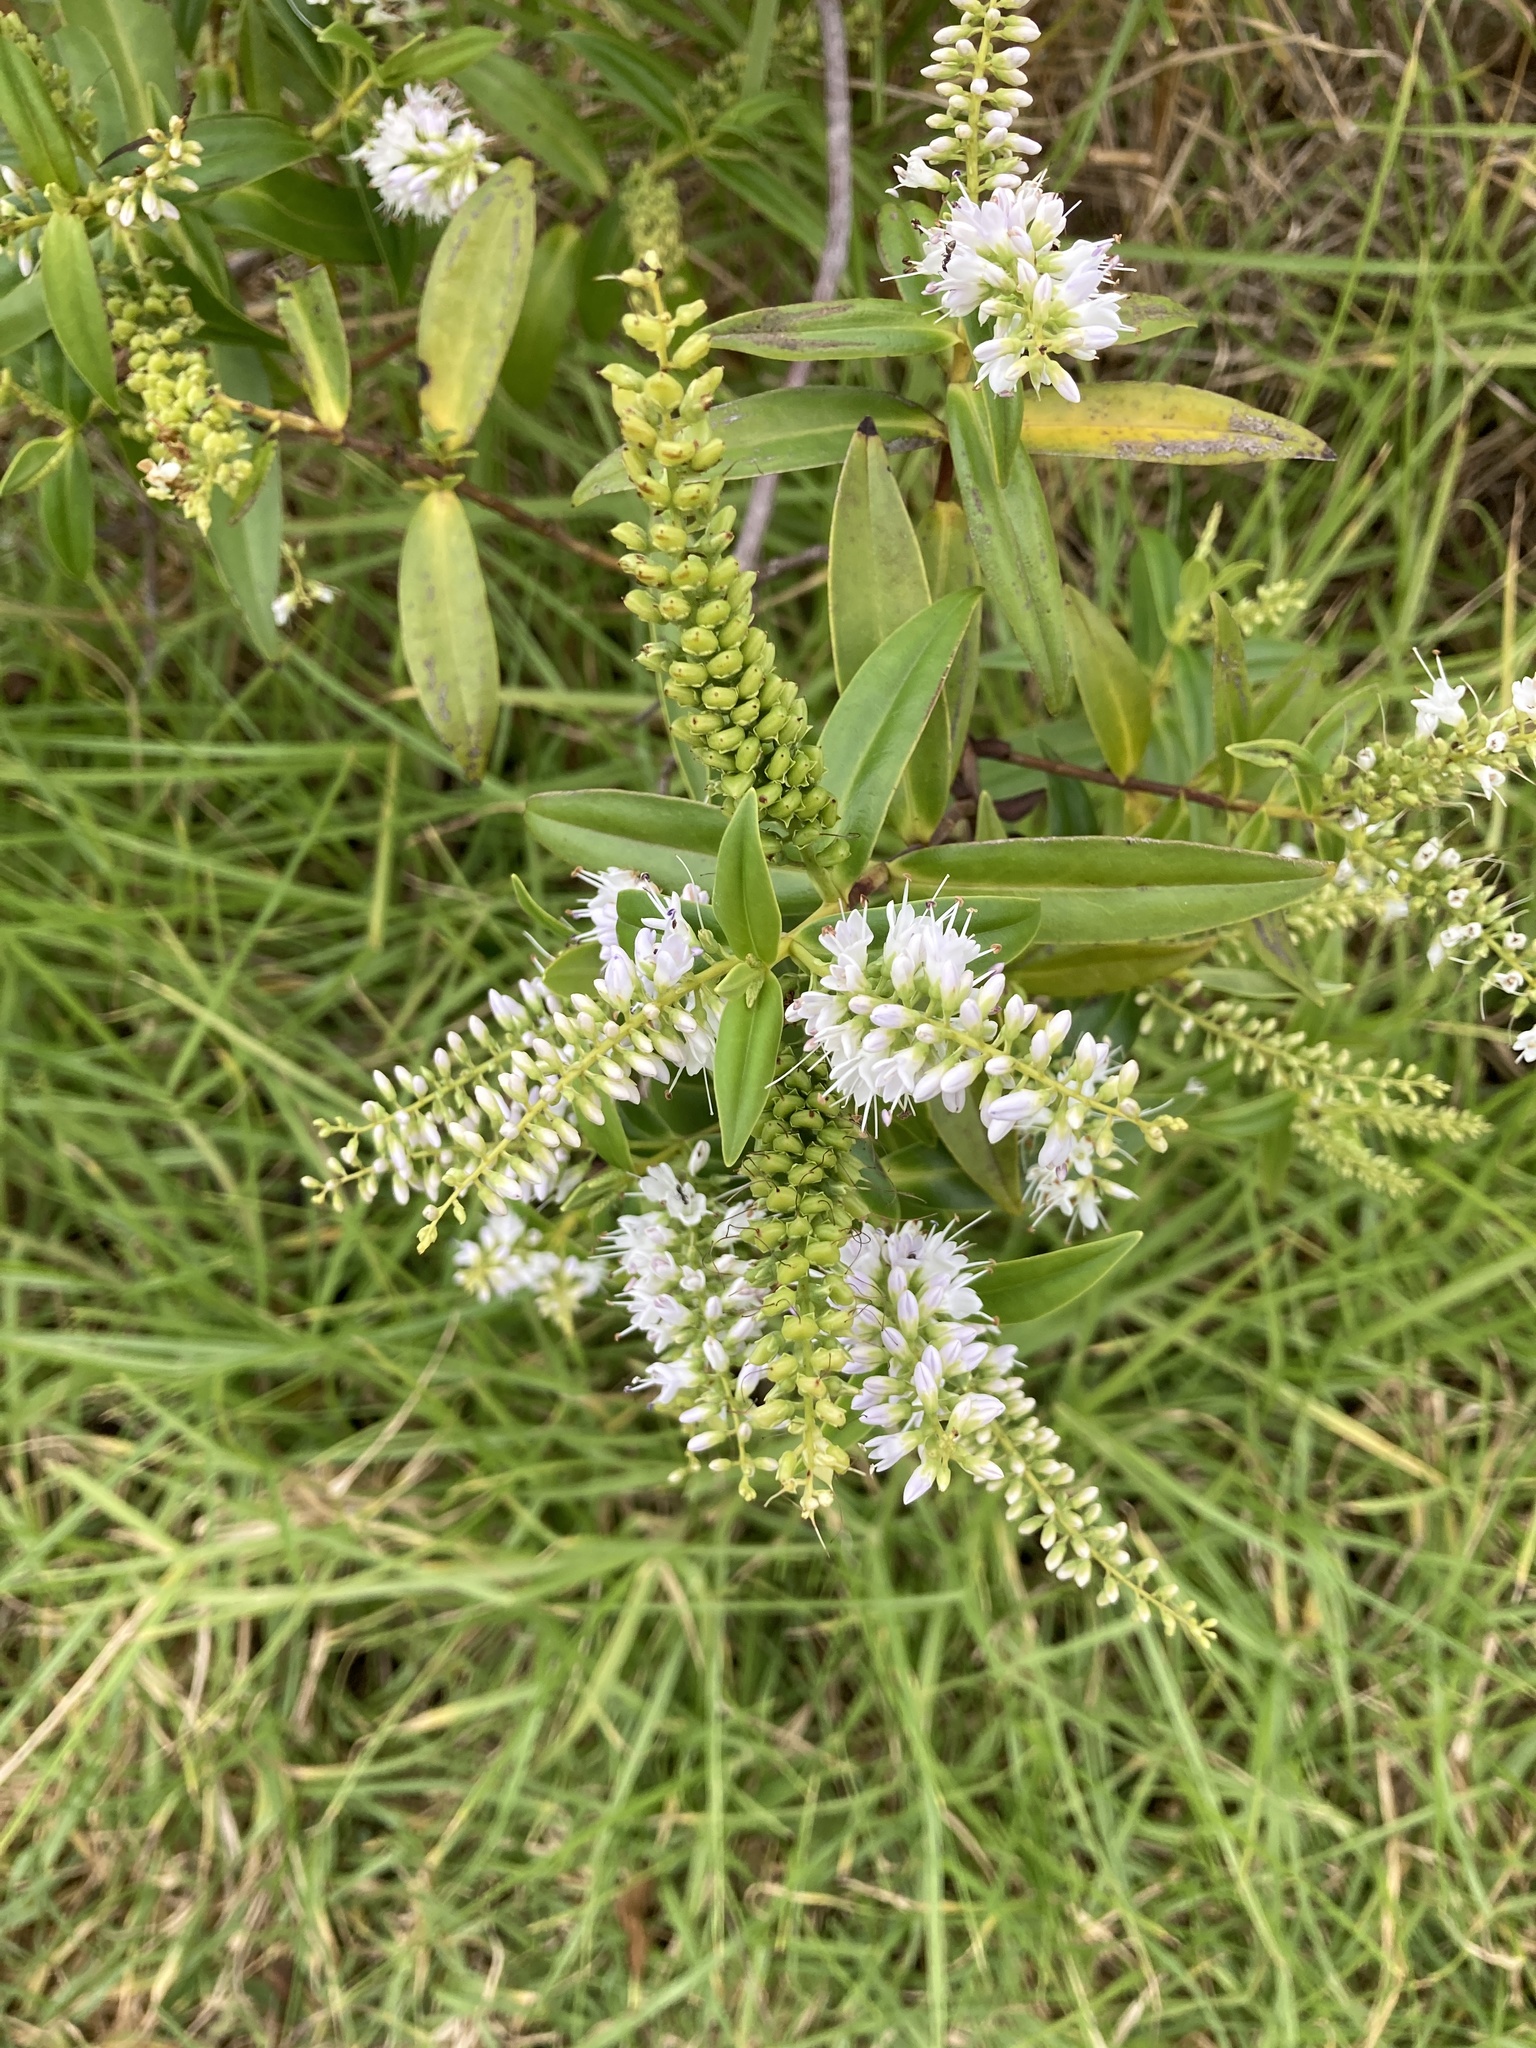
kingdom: Plantae
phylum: Tracheophyta
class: Magnoliopsida
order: Lamiales
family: Plantaginaceae
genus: Veronica
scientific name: Veronica stricta
